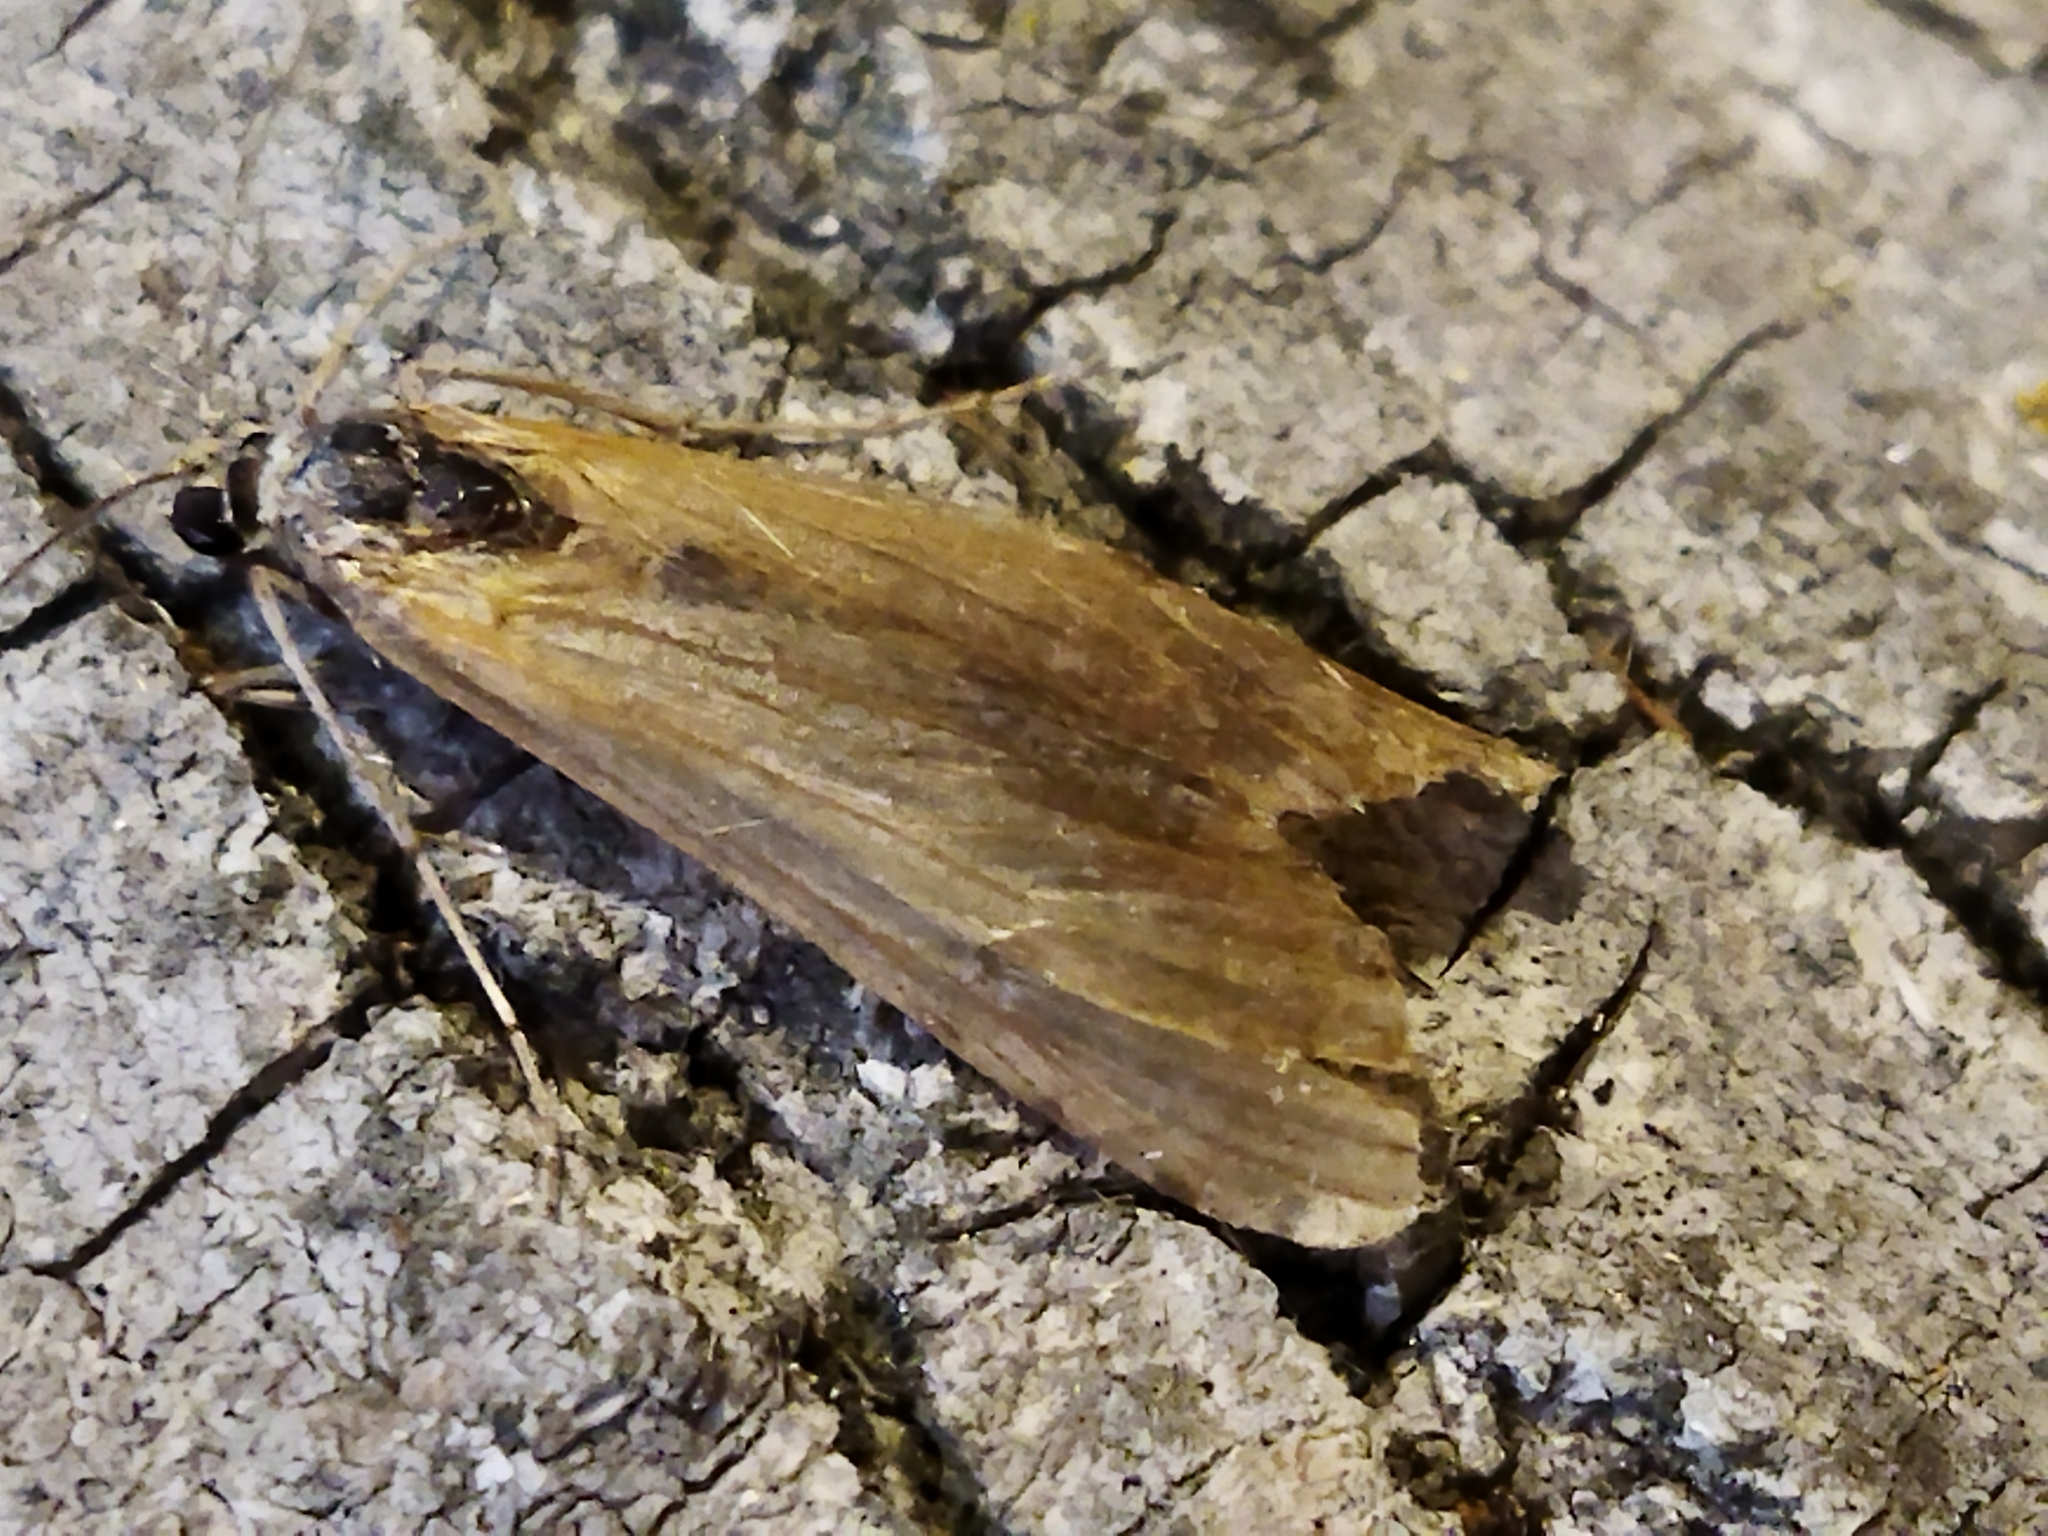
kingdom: Animalia
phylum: Arthropoda
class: Insecta
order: Lepidoptera
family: Crambidae
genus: Nomophila
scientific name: Nomophila noctuella
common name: Rush veneer
